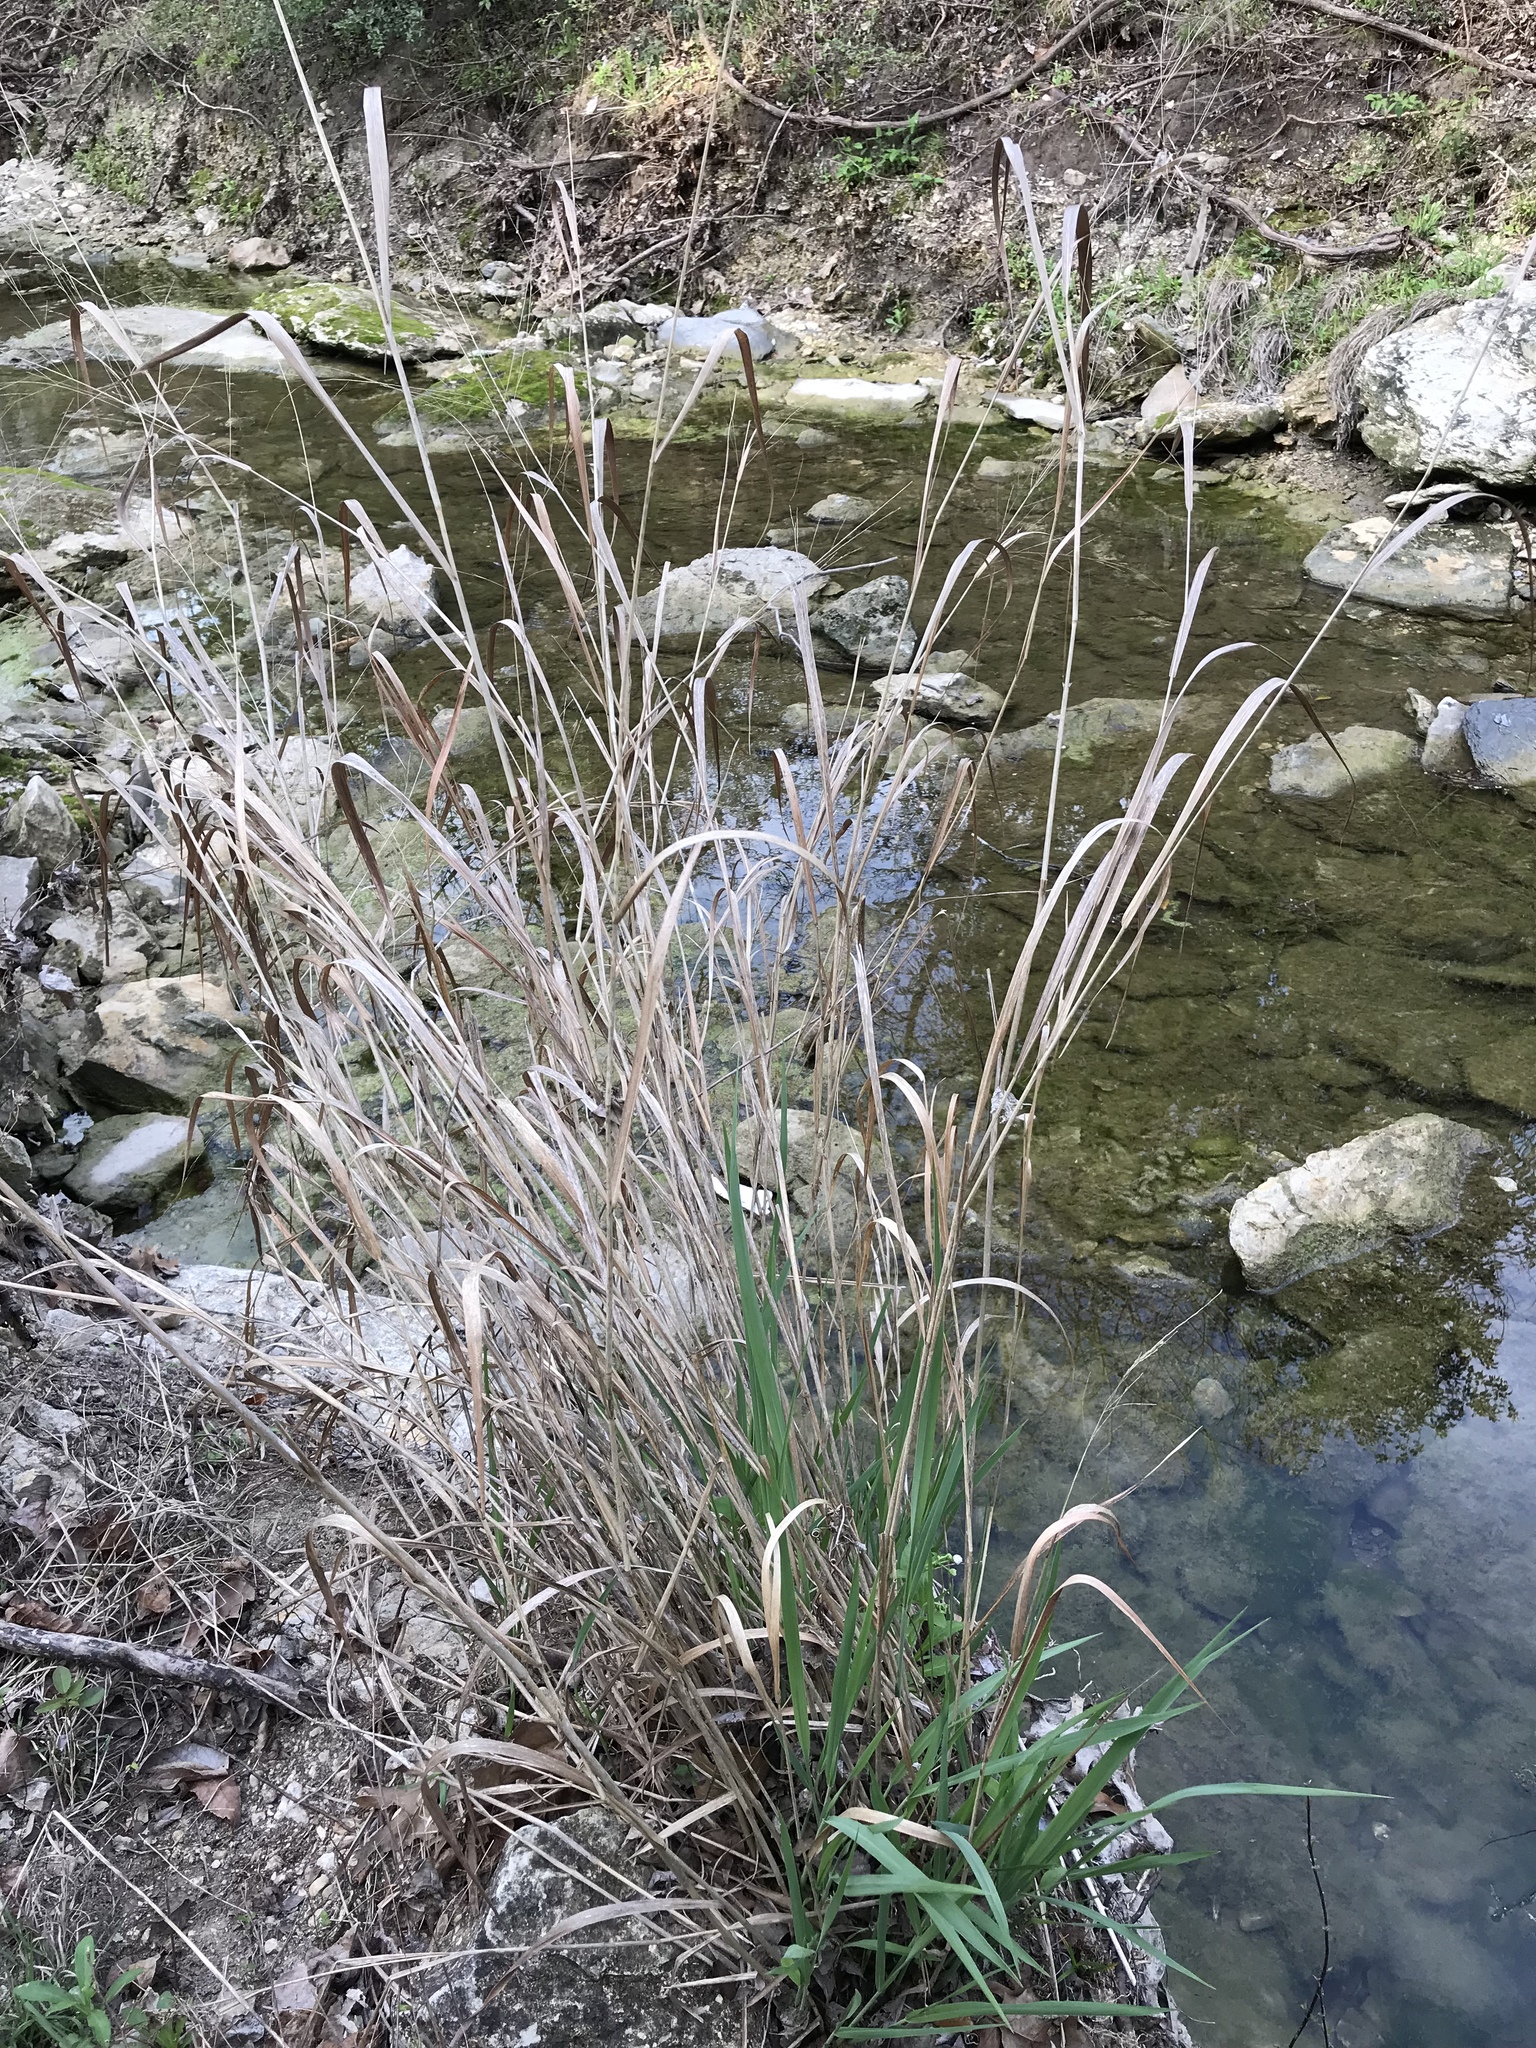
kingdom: Plantae
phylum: Tracheophyta
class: Liliopsida
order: Poales
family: Poaceae
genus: Panicum
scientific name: Panicum virgatum
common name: Switchgrass
